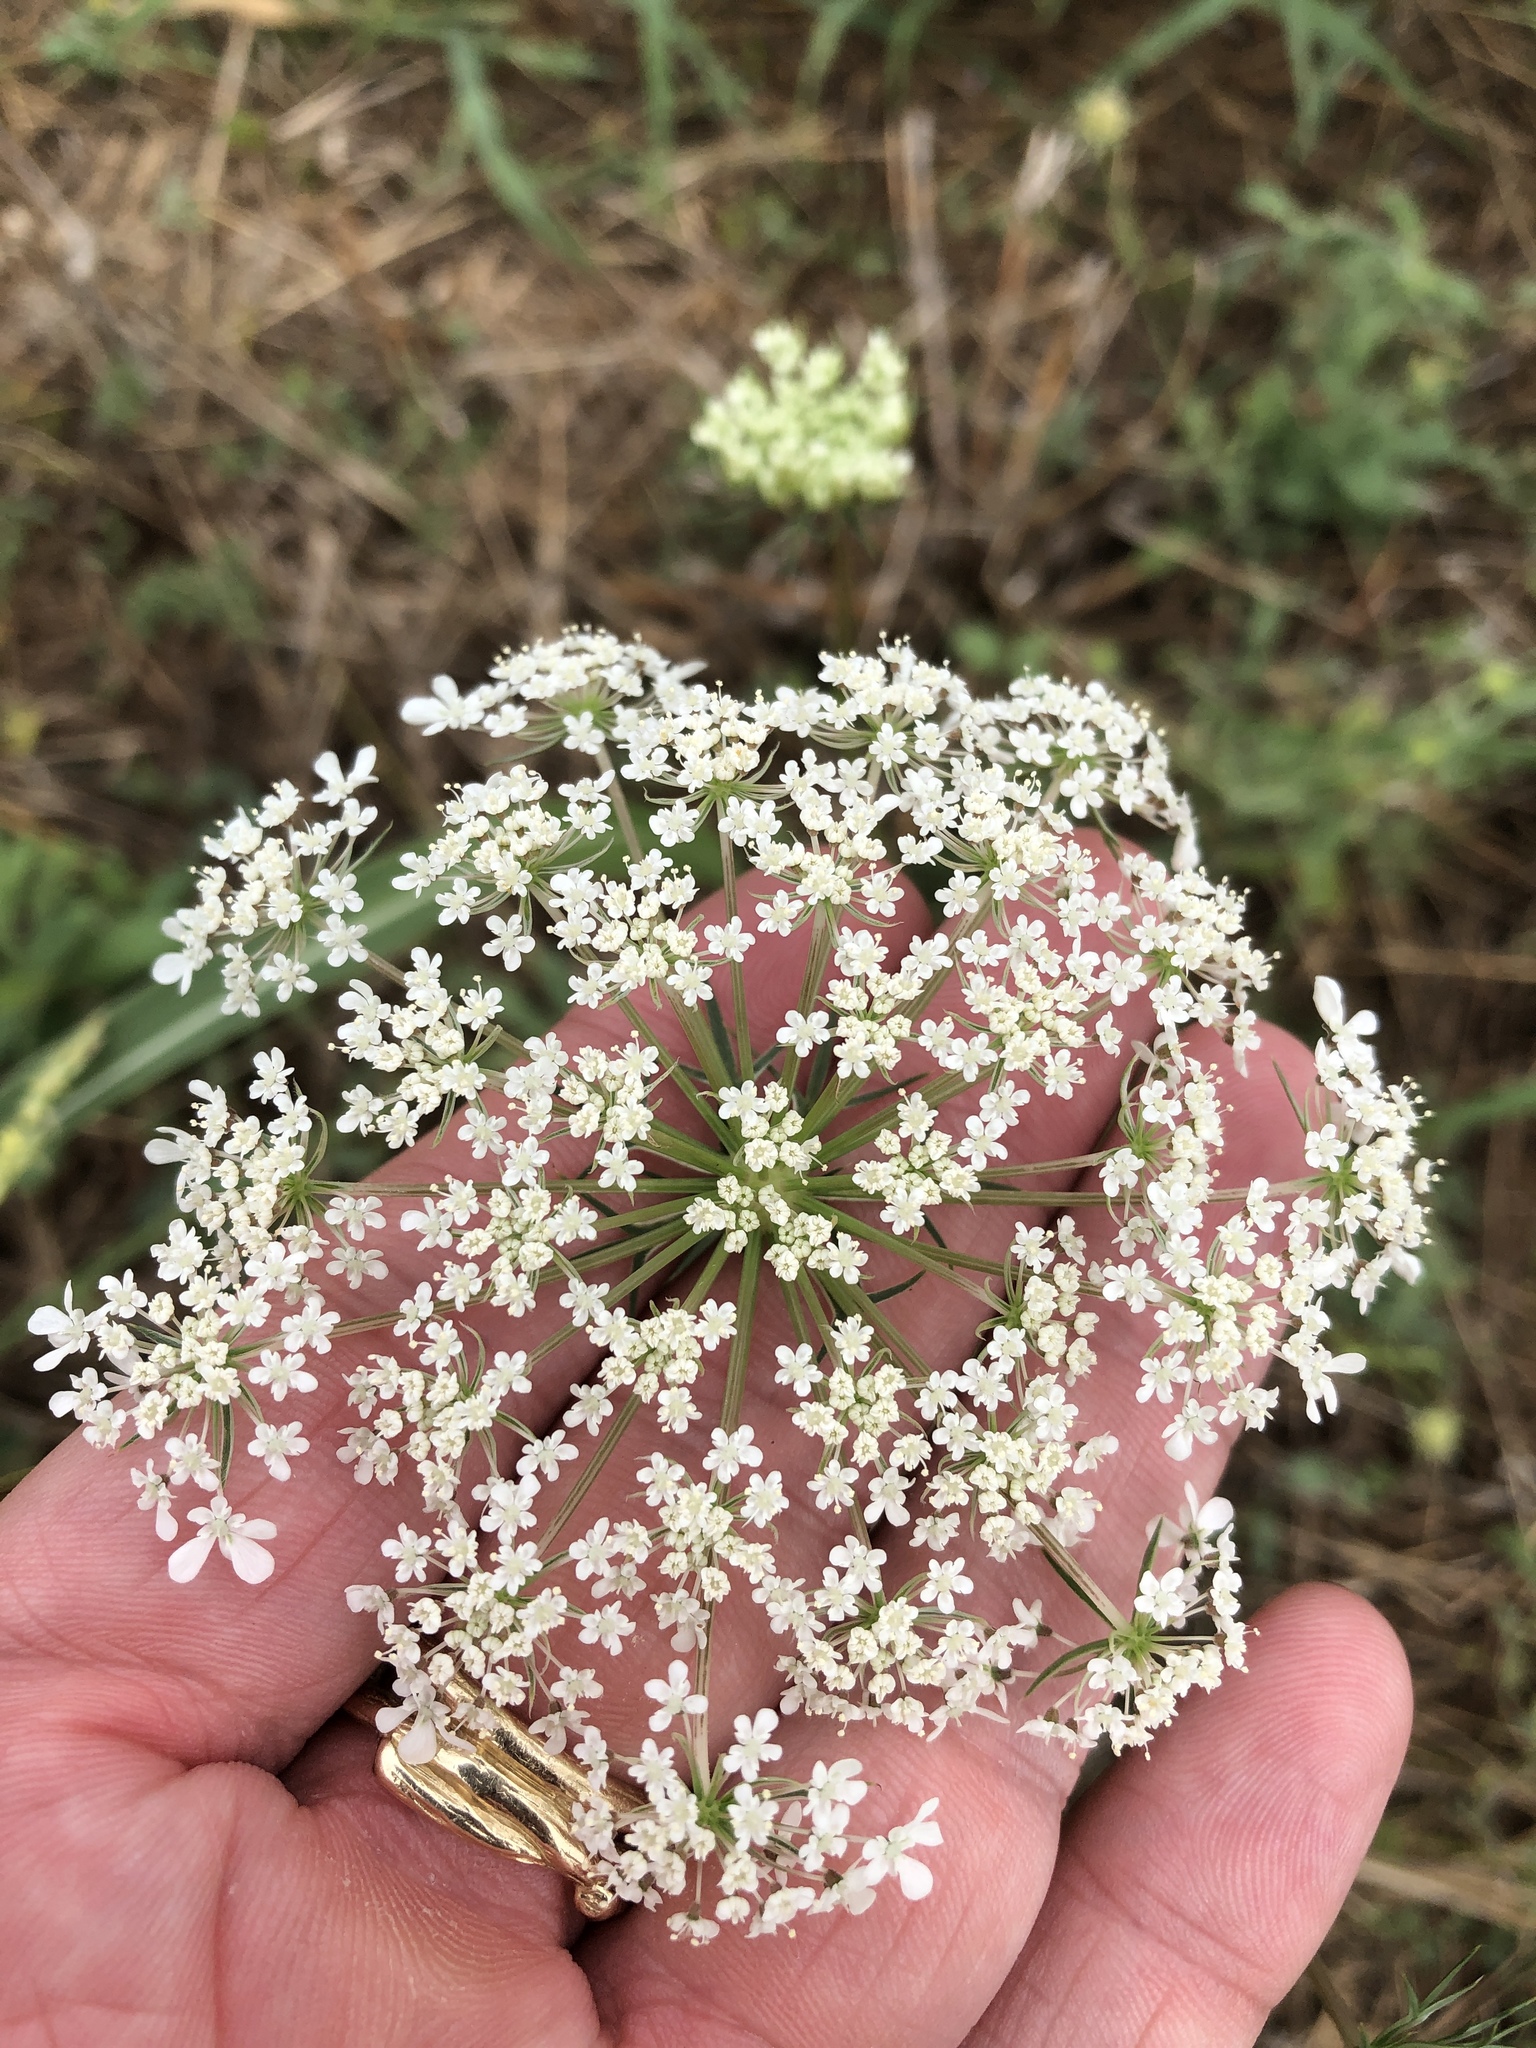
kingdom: Plantae
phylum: Tracheophyta
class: Magnoliopsida
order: Apiales
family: Apiaceae
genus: Daucus
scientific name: Daucus carota
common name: Wild carrot
